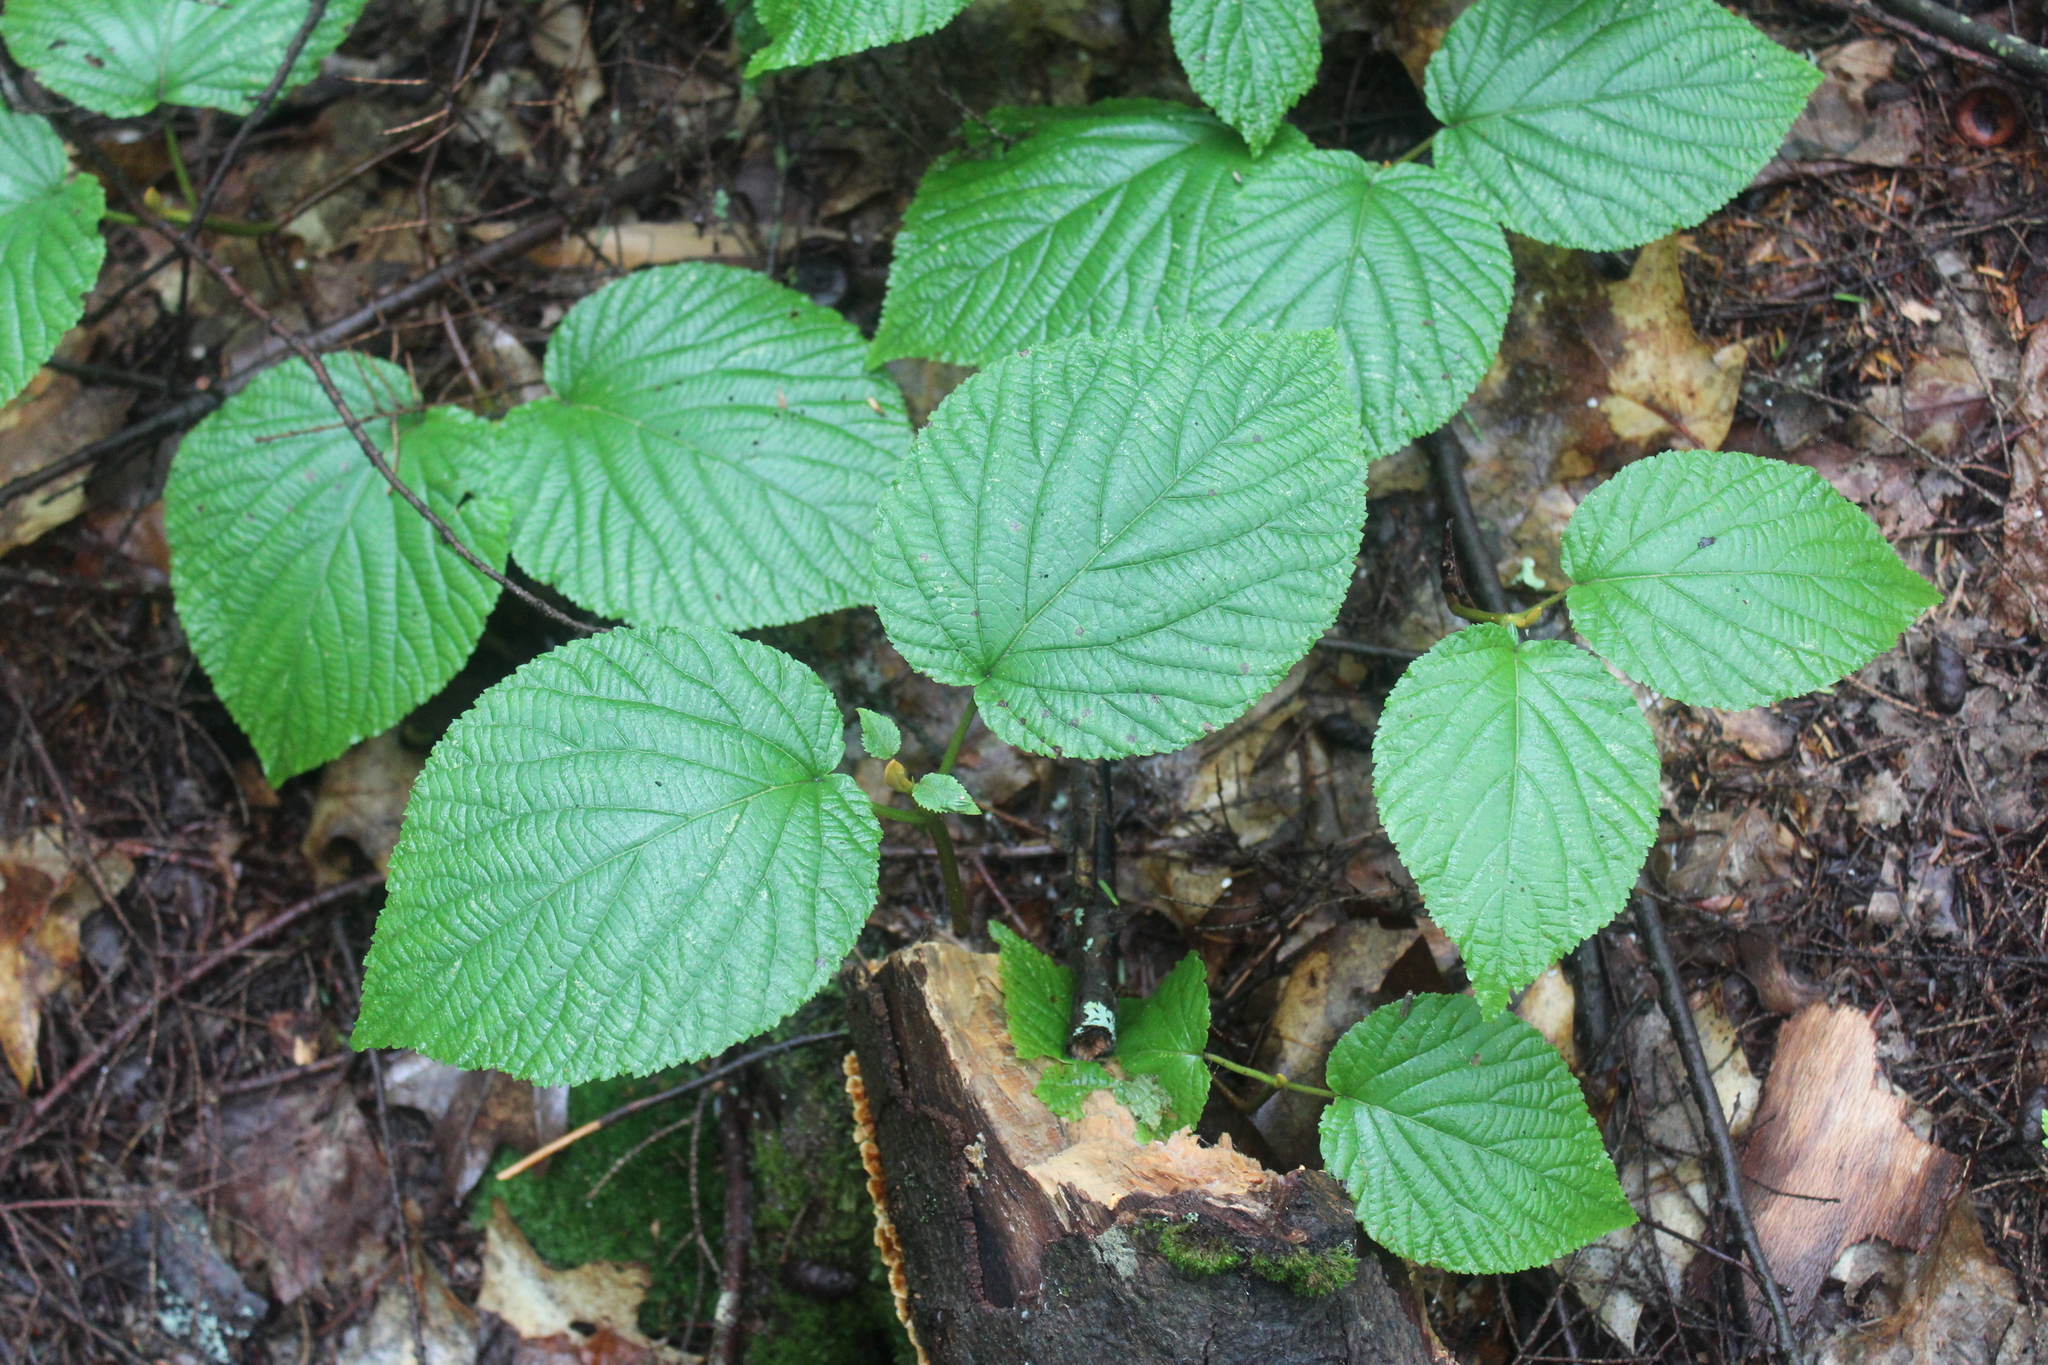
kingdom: Plantae
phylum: Tracheophyta
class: Magnoliopsida
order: Dipsacales
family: Viburnaceae
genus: Viburnum
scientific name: Viburnum lantanoides
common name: Hobblebush
